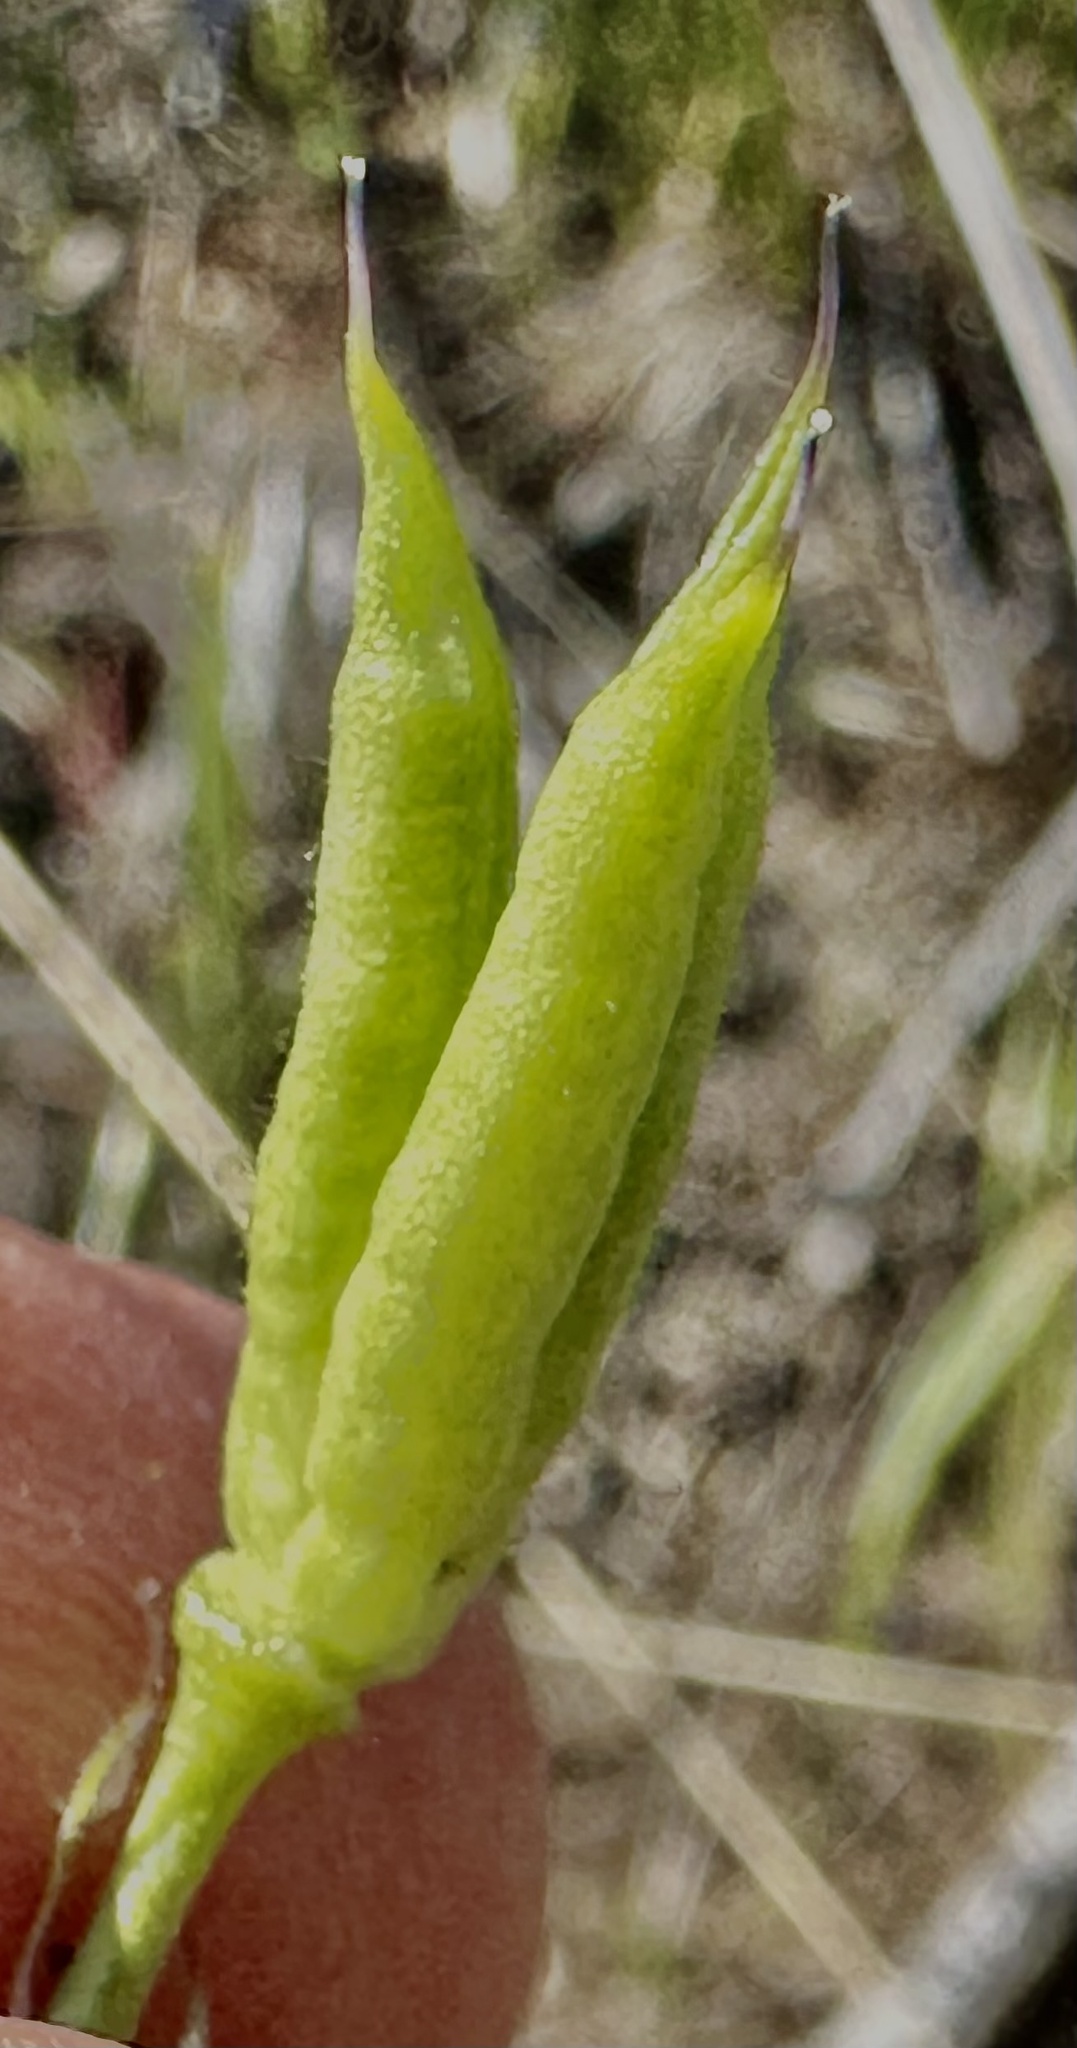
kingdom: Plantae
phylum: Tracheophyta
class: Magnoliopsida
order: Ranunculales
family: Ranunculaceae
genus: Delphinium
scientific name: Delphinium nuttallianum
